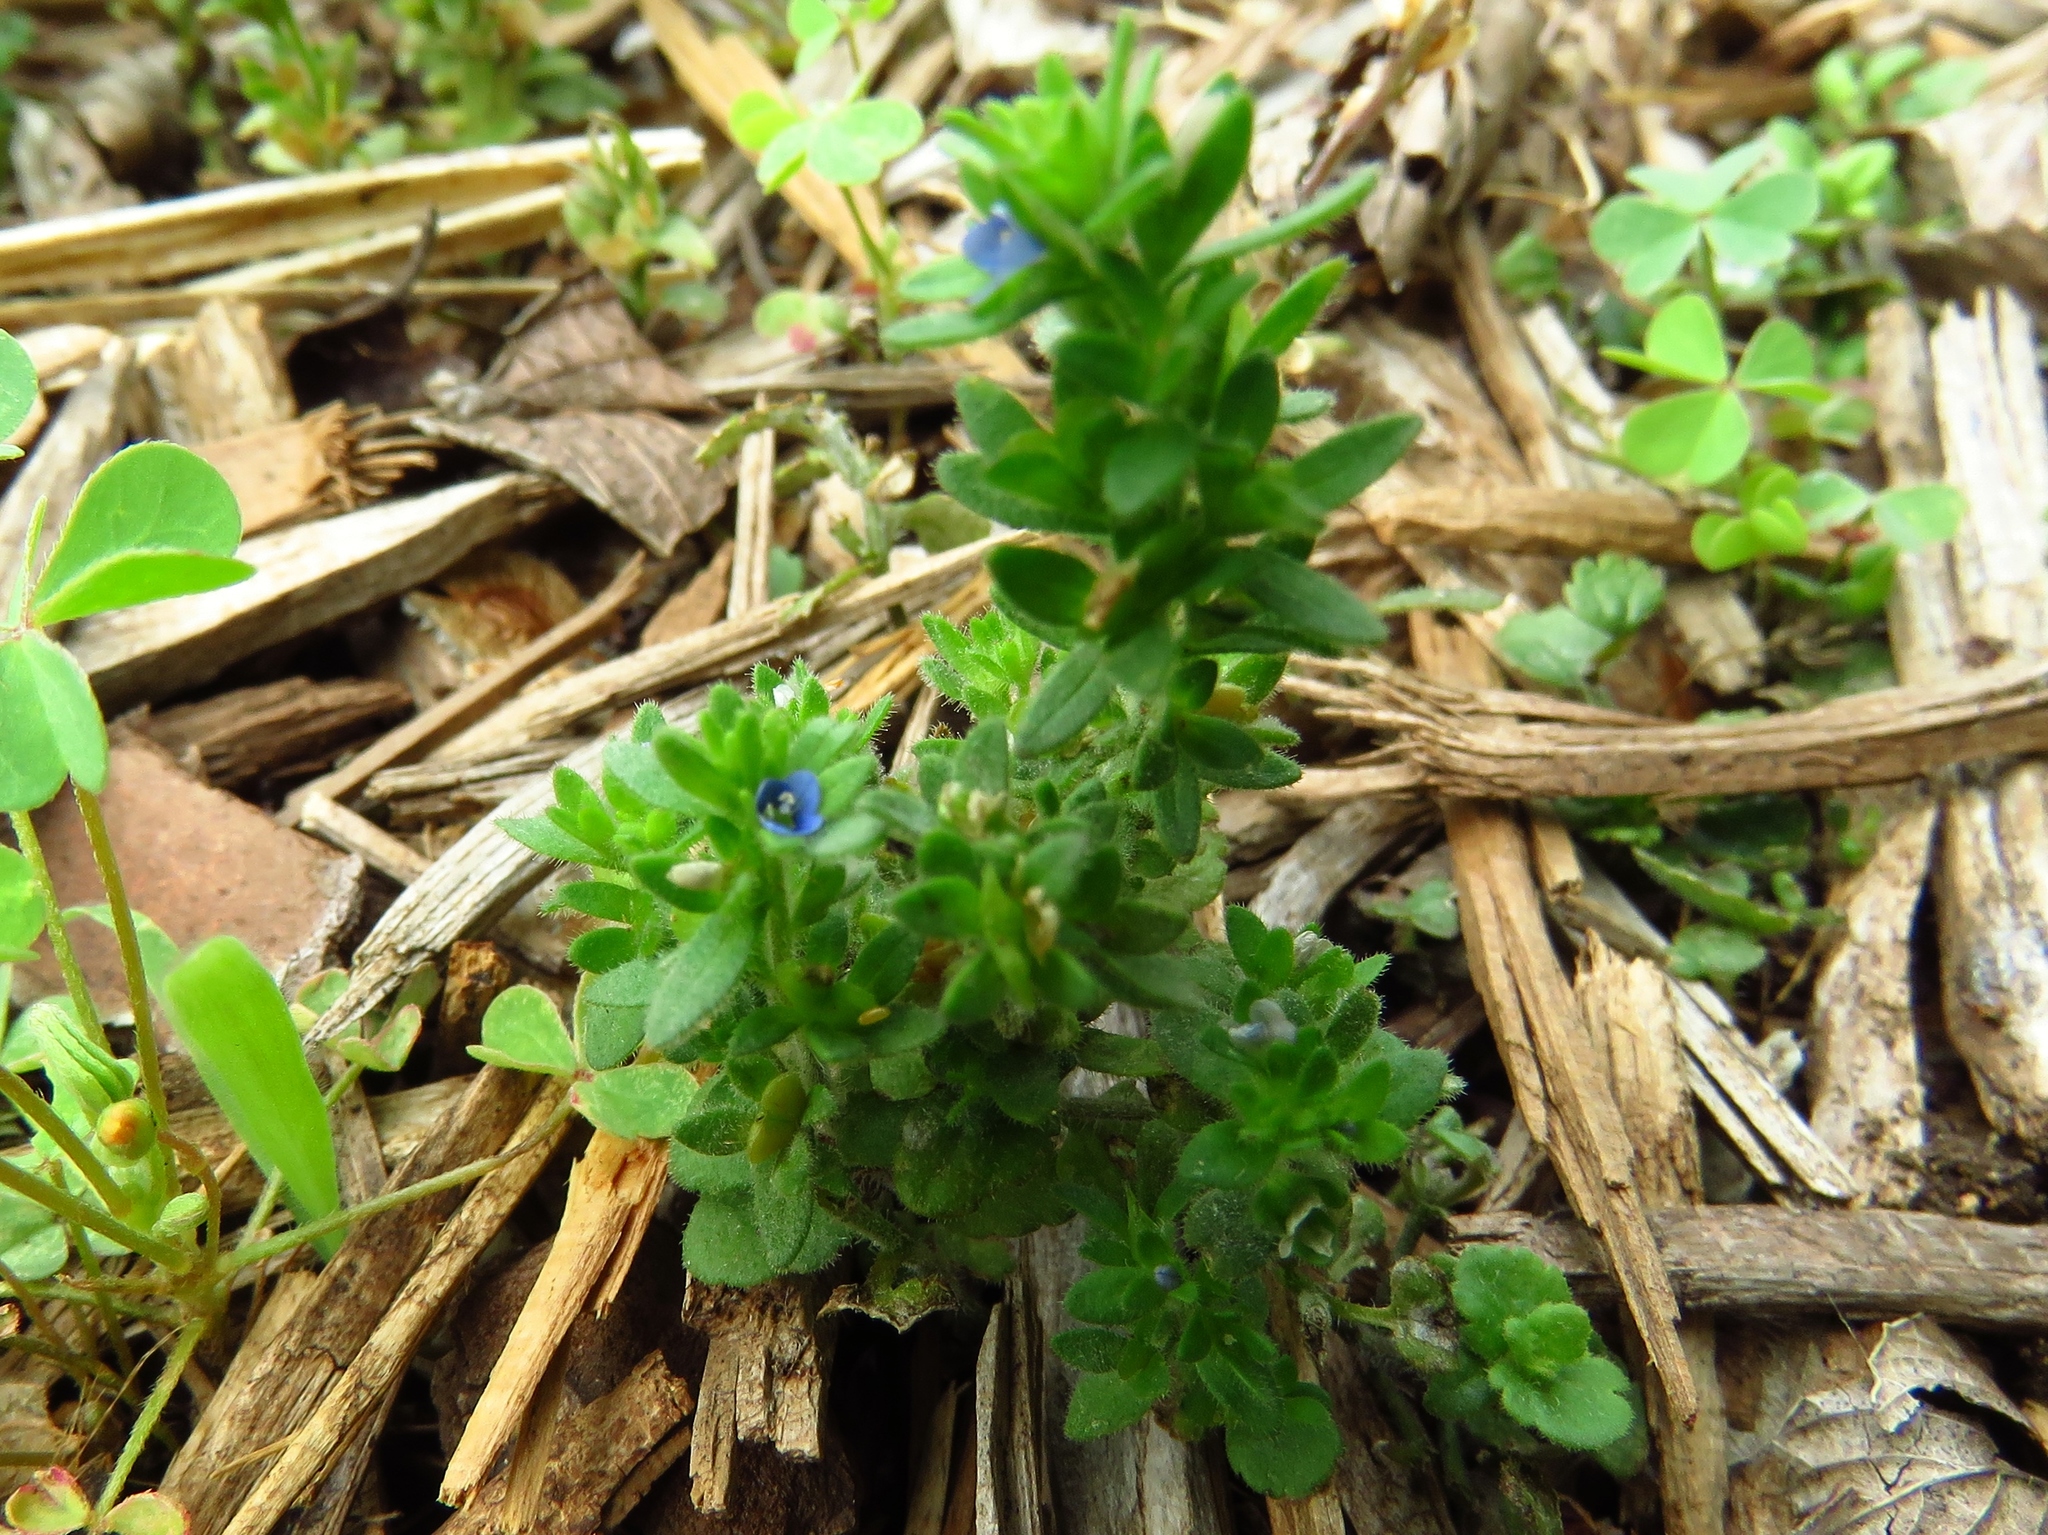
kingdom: Plantae
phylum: Tracheophyta
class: Magnoliopsida
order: Lamiales
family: Plantaginaceae
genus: Veronica
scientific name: Veronica arvensis
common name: Corn speedwell
